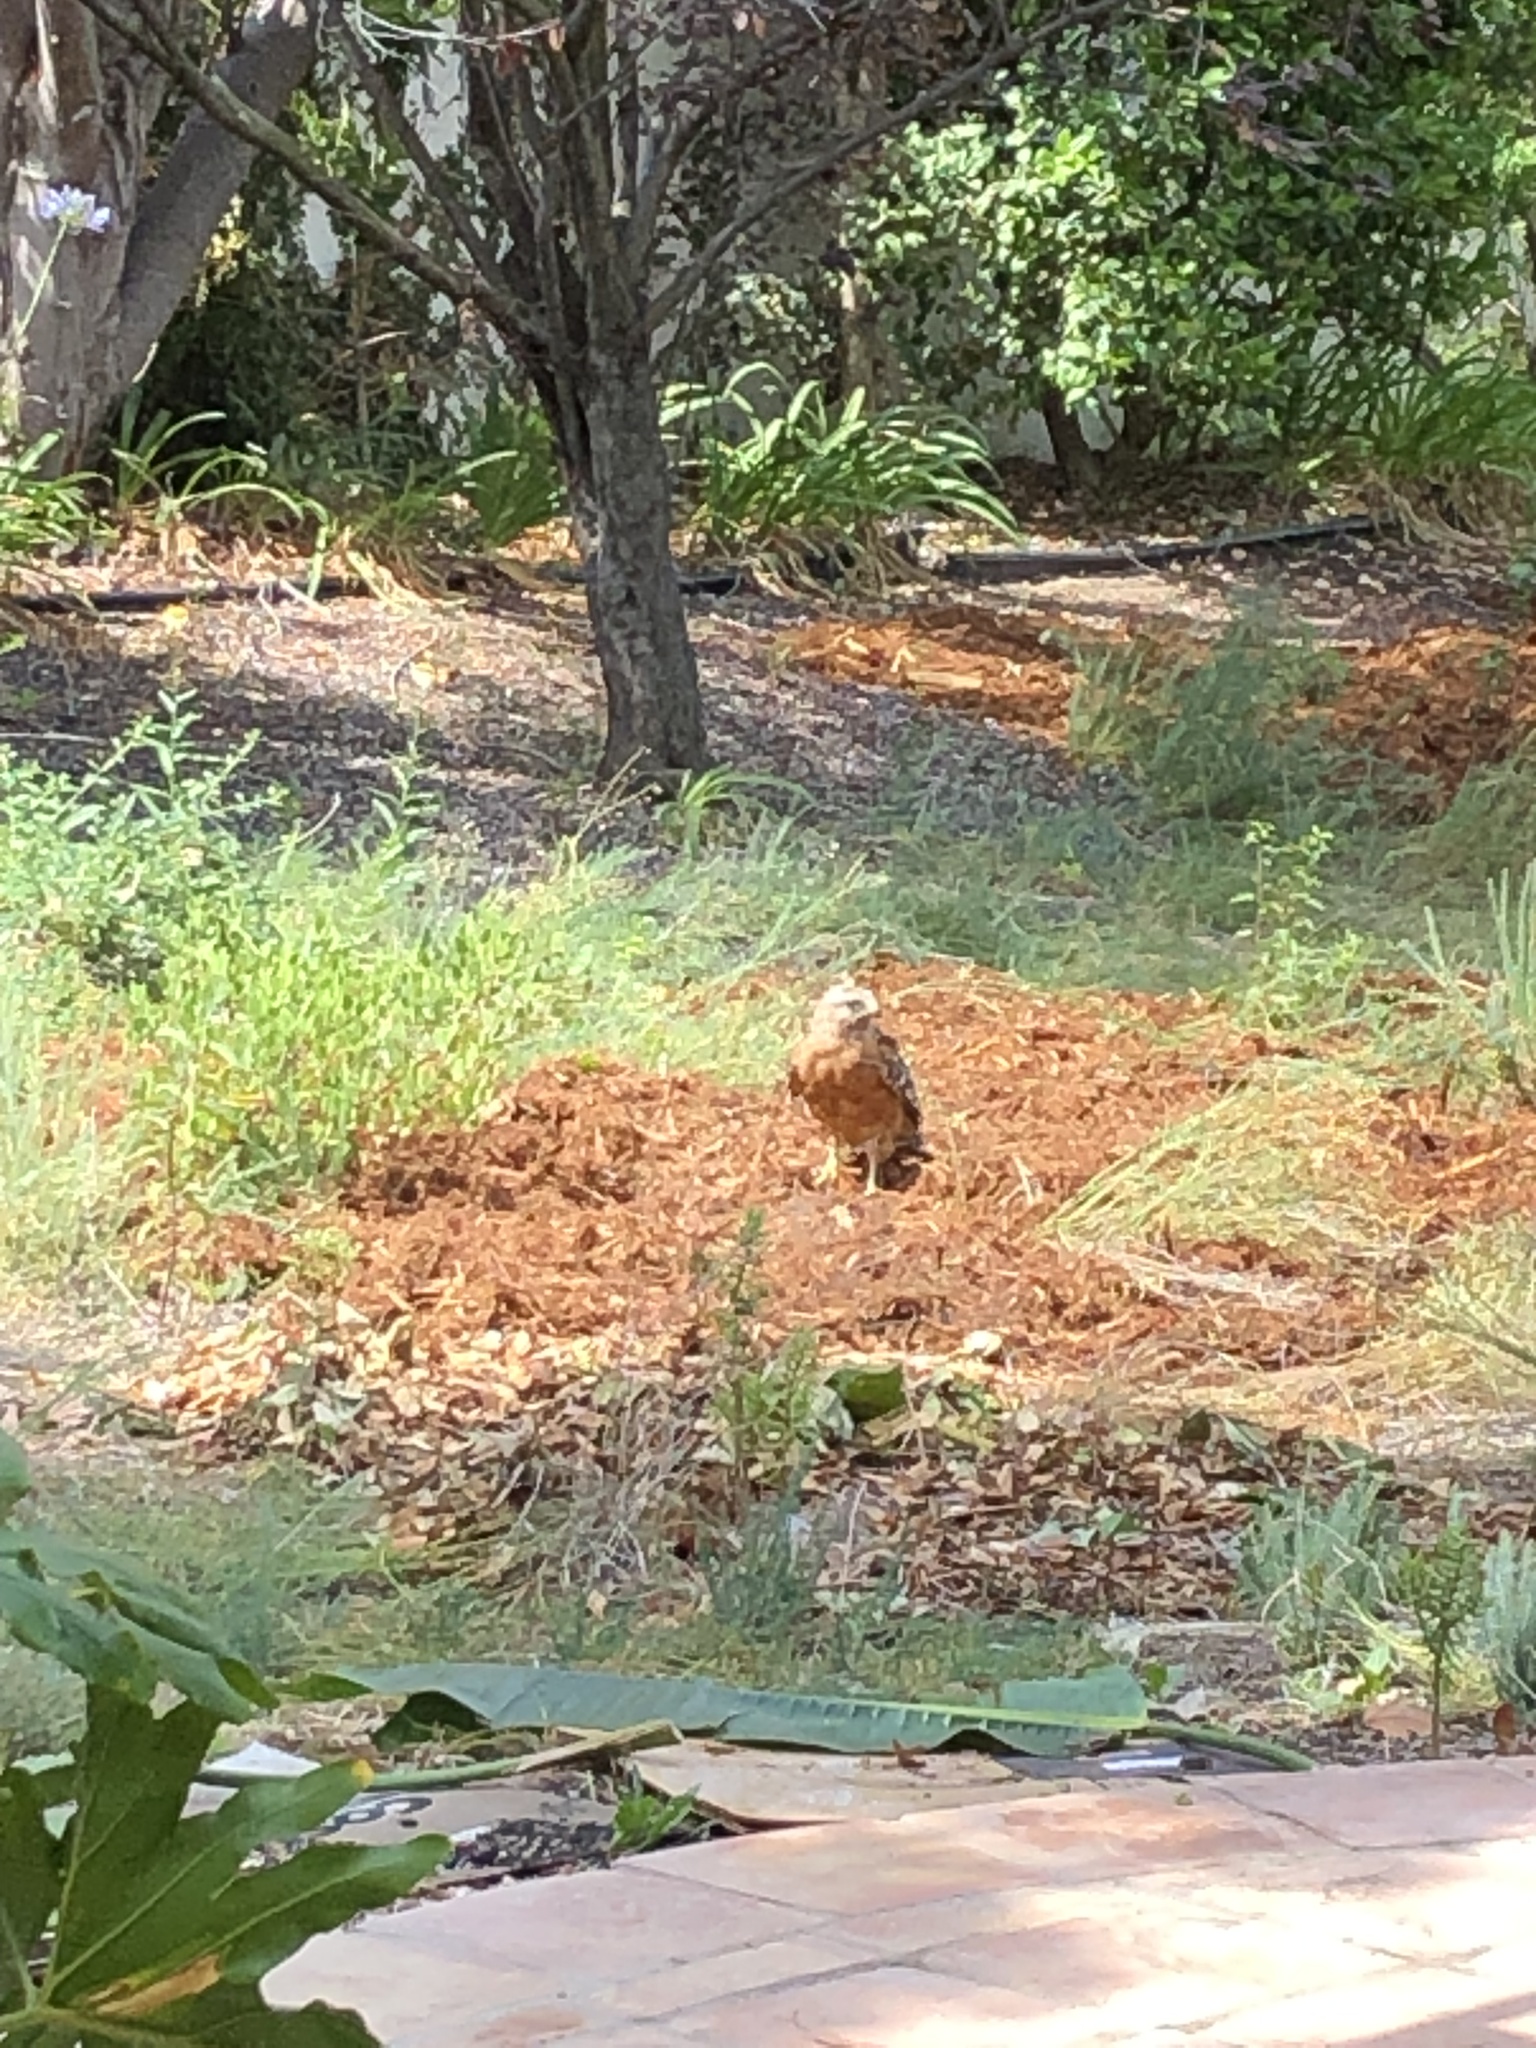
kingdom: Animalia
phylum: Chordata
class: Aves
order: Accipitriformes
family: Accipitridae
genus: Buteo
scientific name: Buteo lineatus
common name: Red-shouldered hawk
